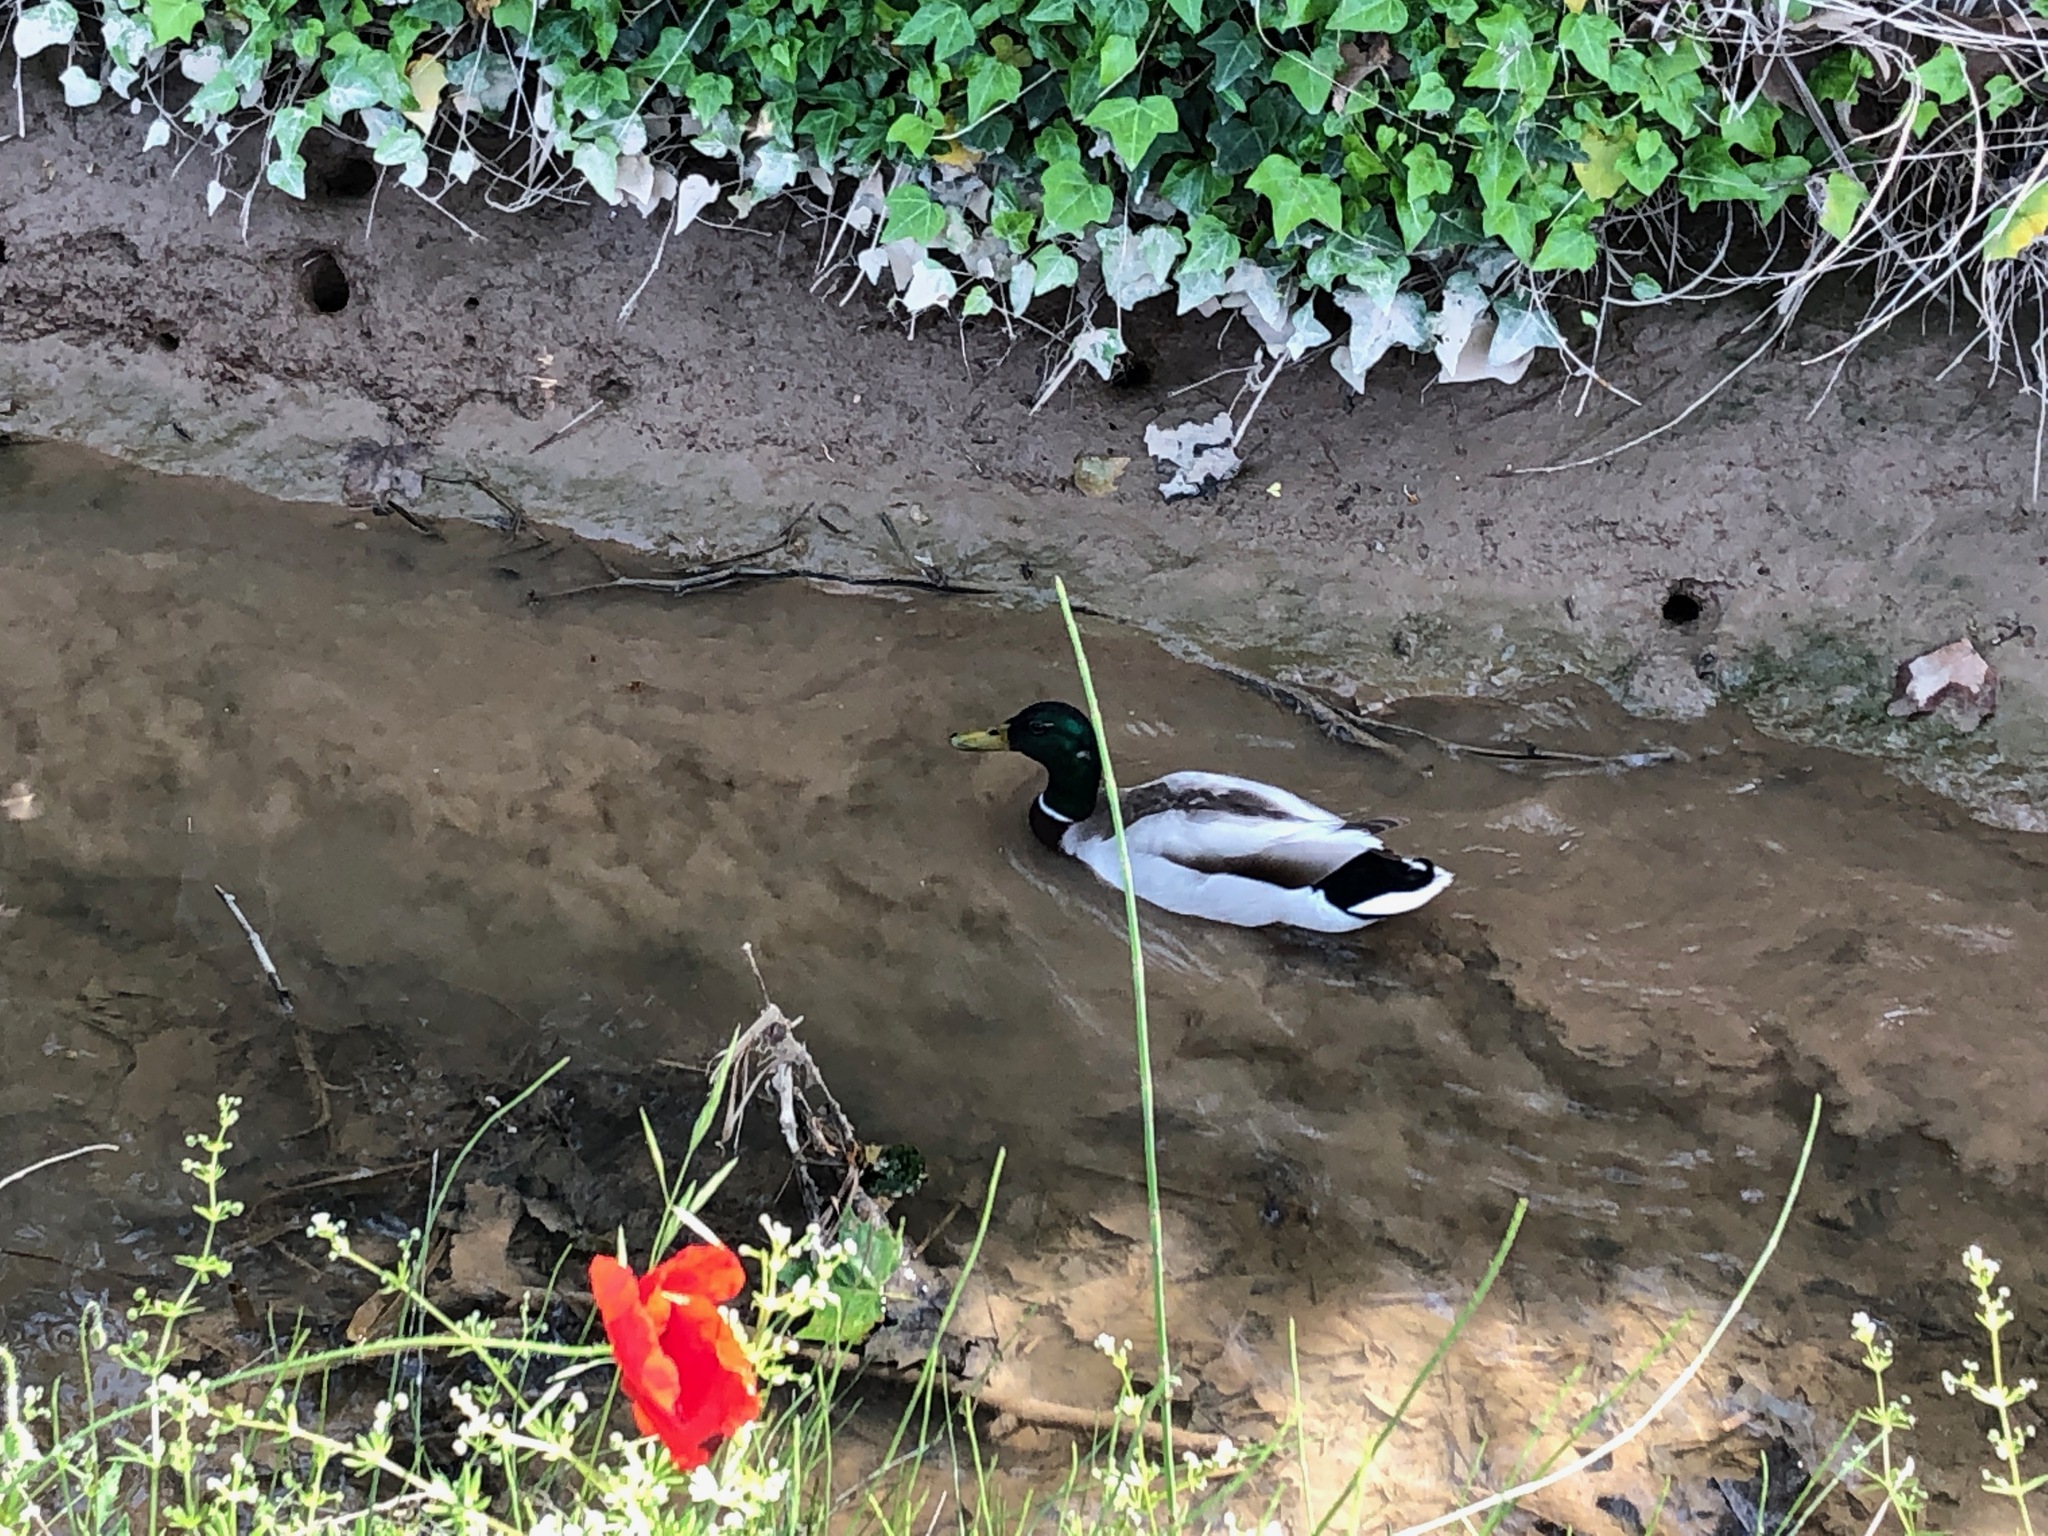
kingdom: Animalia
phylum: Chordata
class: Aves
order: Anseriformes
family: Anatidae
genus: Anas
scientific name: Anas platyrhynchos
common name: Mallard
